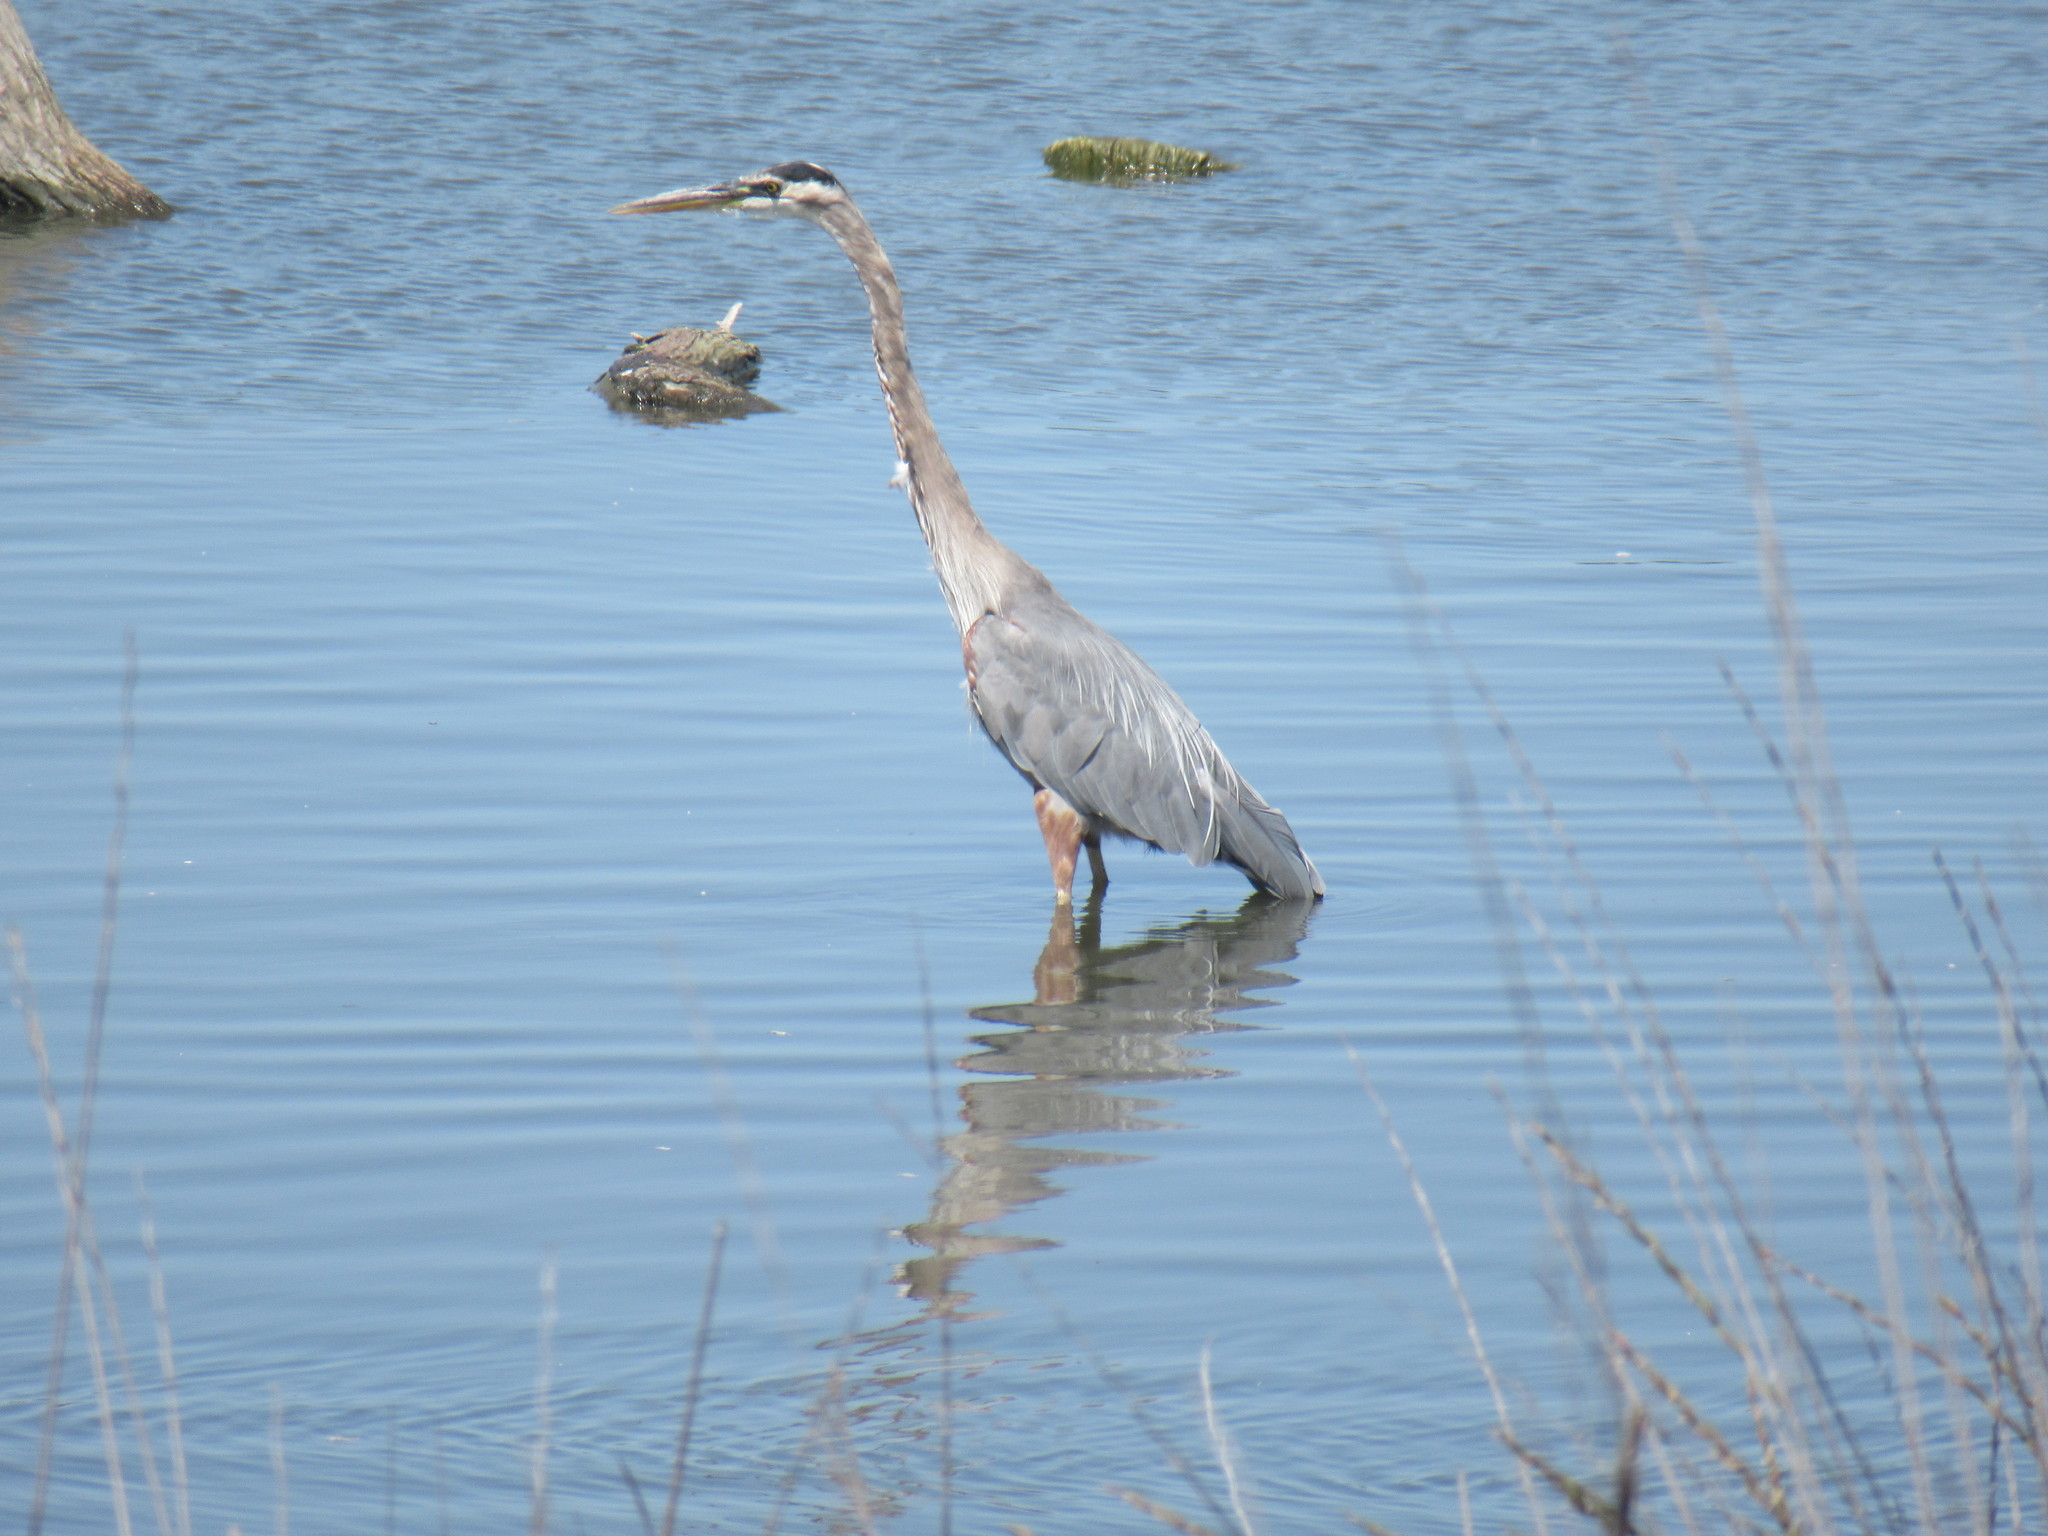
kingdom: Animalia
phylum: Chordata
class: Aves
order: Pelecaniformes
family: Ardeidae
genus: Ardea
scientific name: Ardea herodias
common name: Great blue heron
